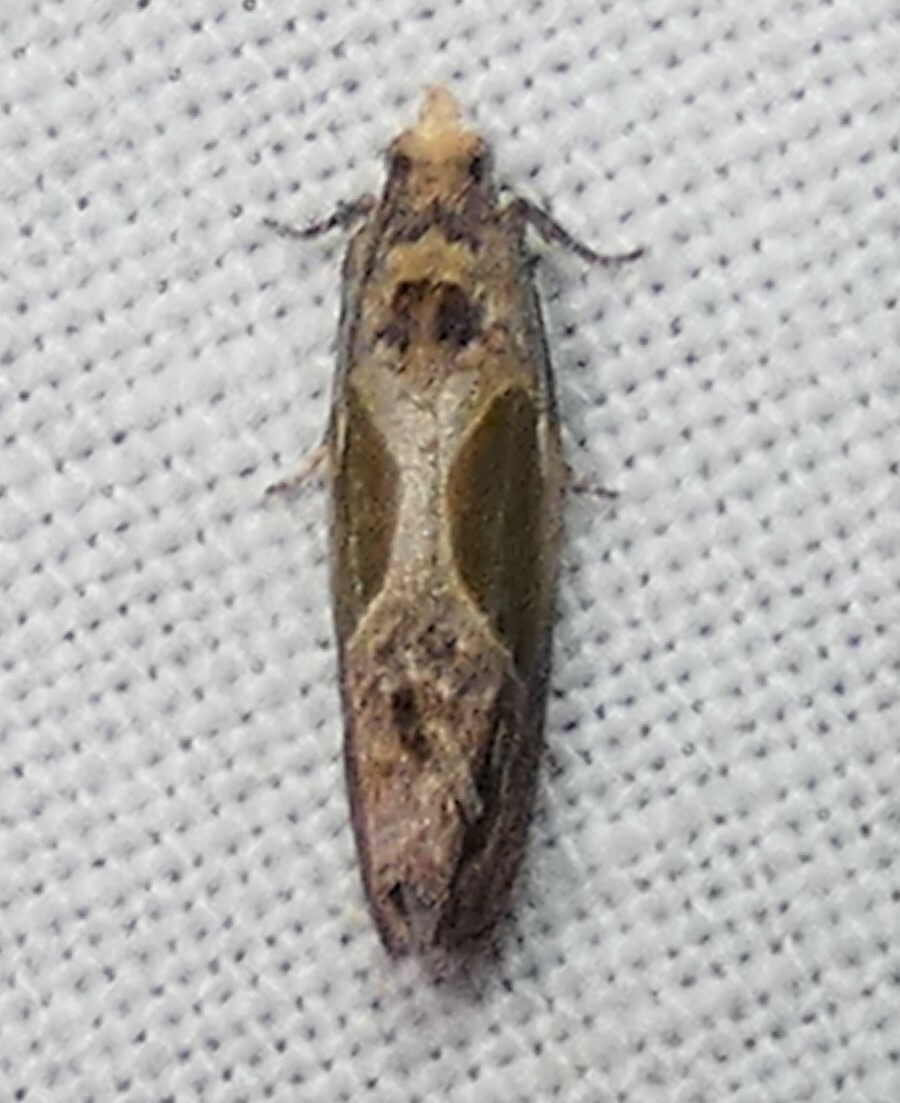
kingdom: Animalia
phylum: Arthropoda
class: Insecta
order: Lepidoptera
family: Tortricidae
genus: Eumarozia
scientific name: Eumarozia malachitana
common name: Sculptured moth
